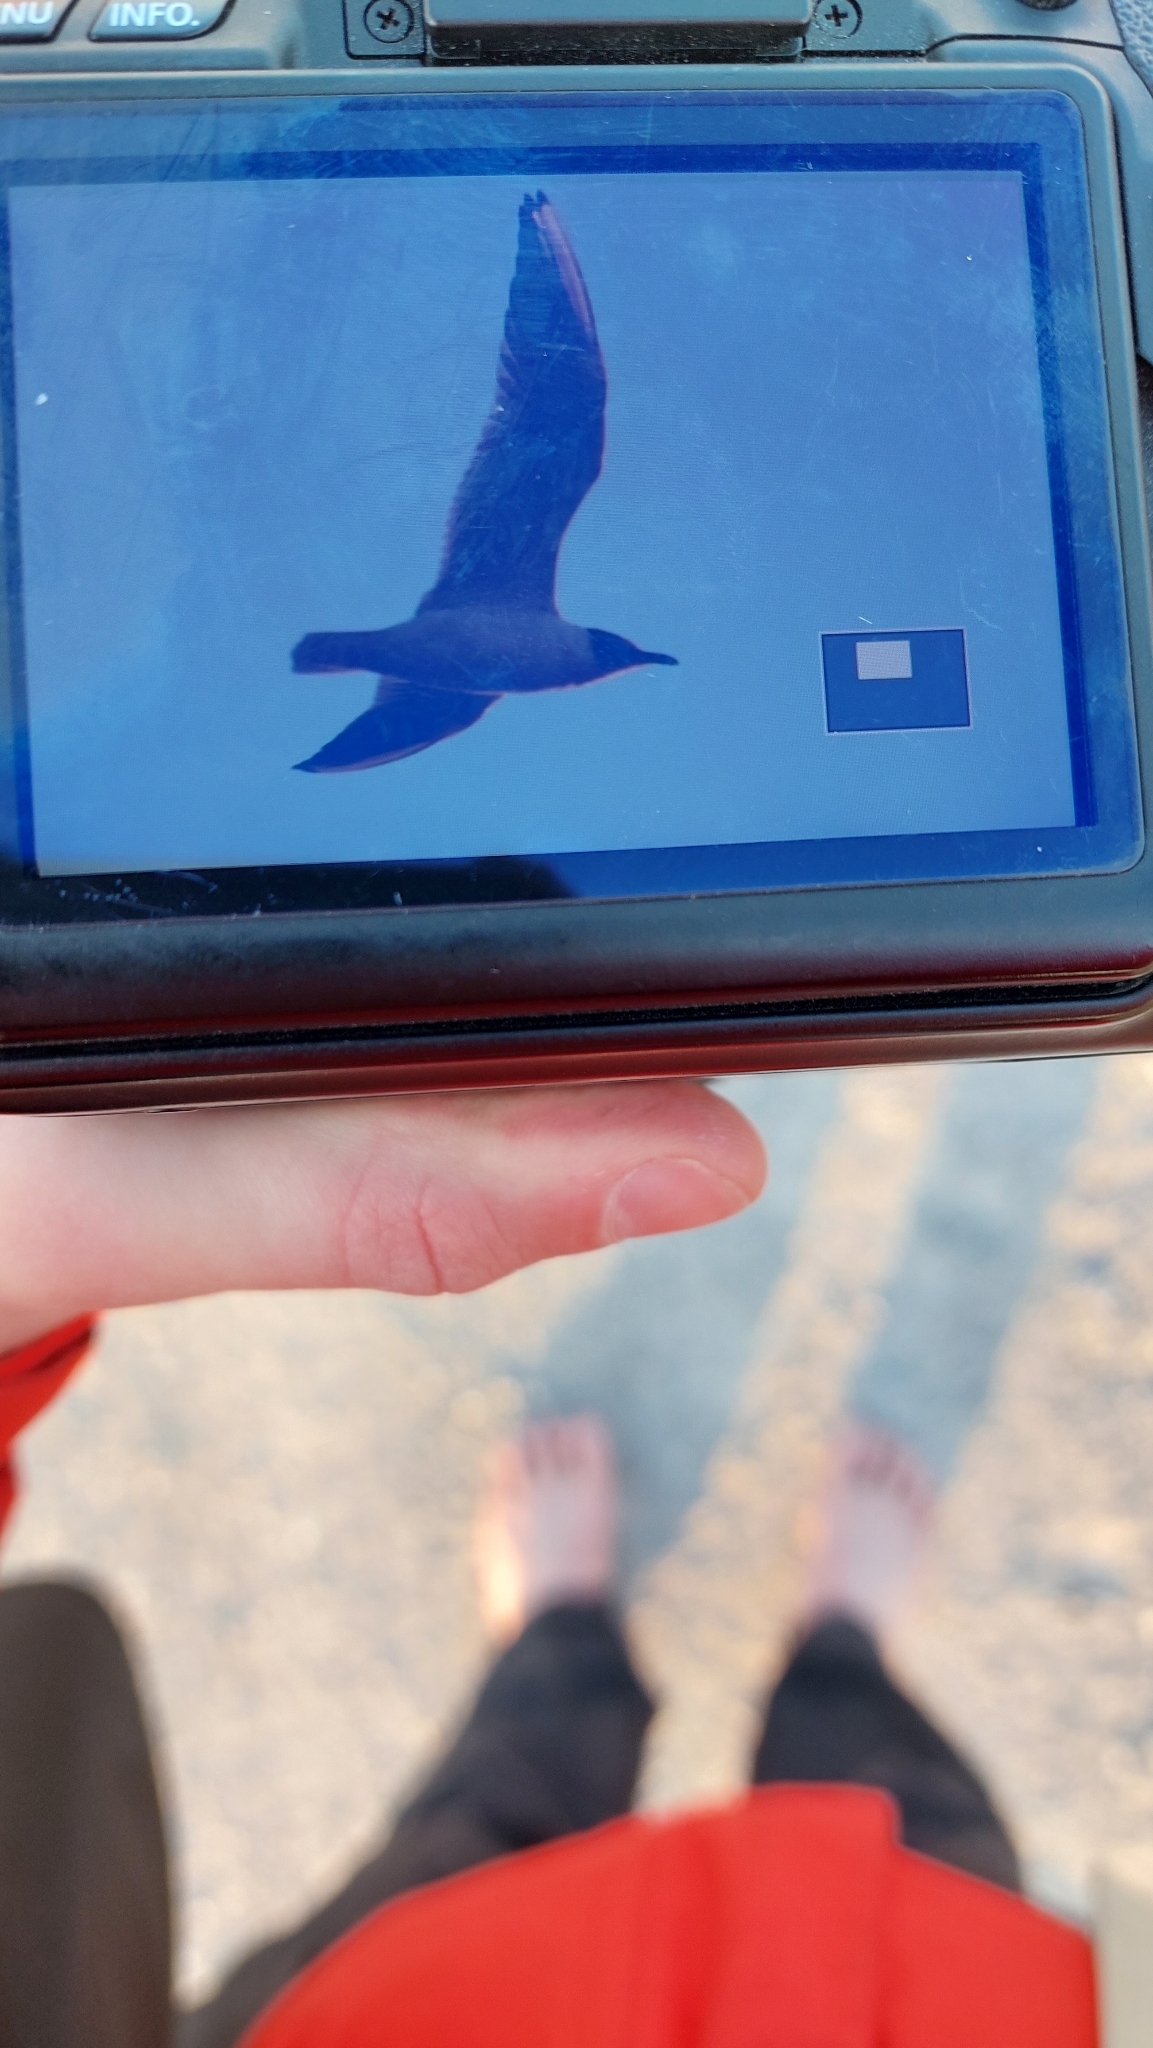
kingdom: Animalia
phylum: Chordata
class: Aves
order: Charadriiformes
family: Laridae
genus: Chroicocephalus
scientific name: Chroicocephalus ridibundus
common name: Black-headed gull
